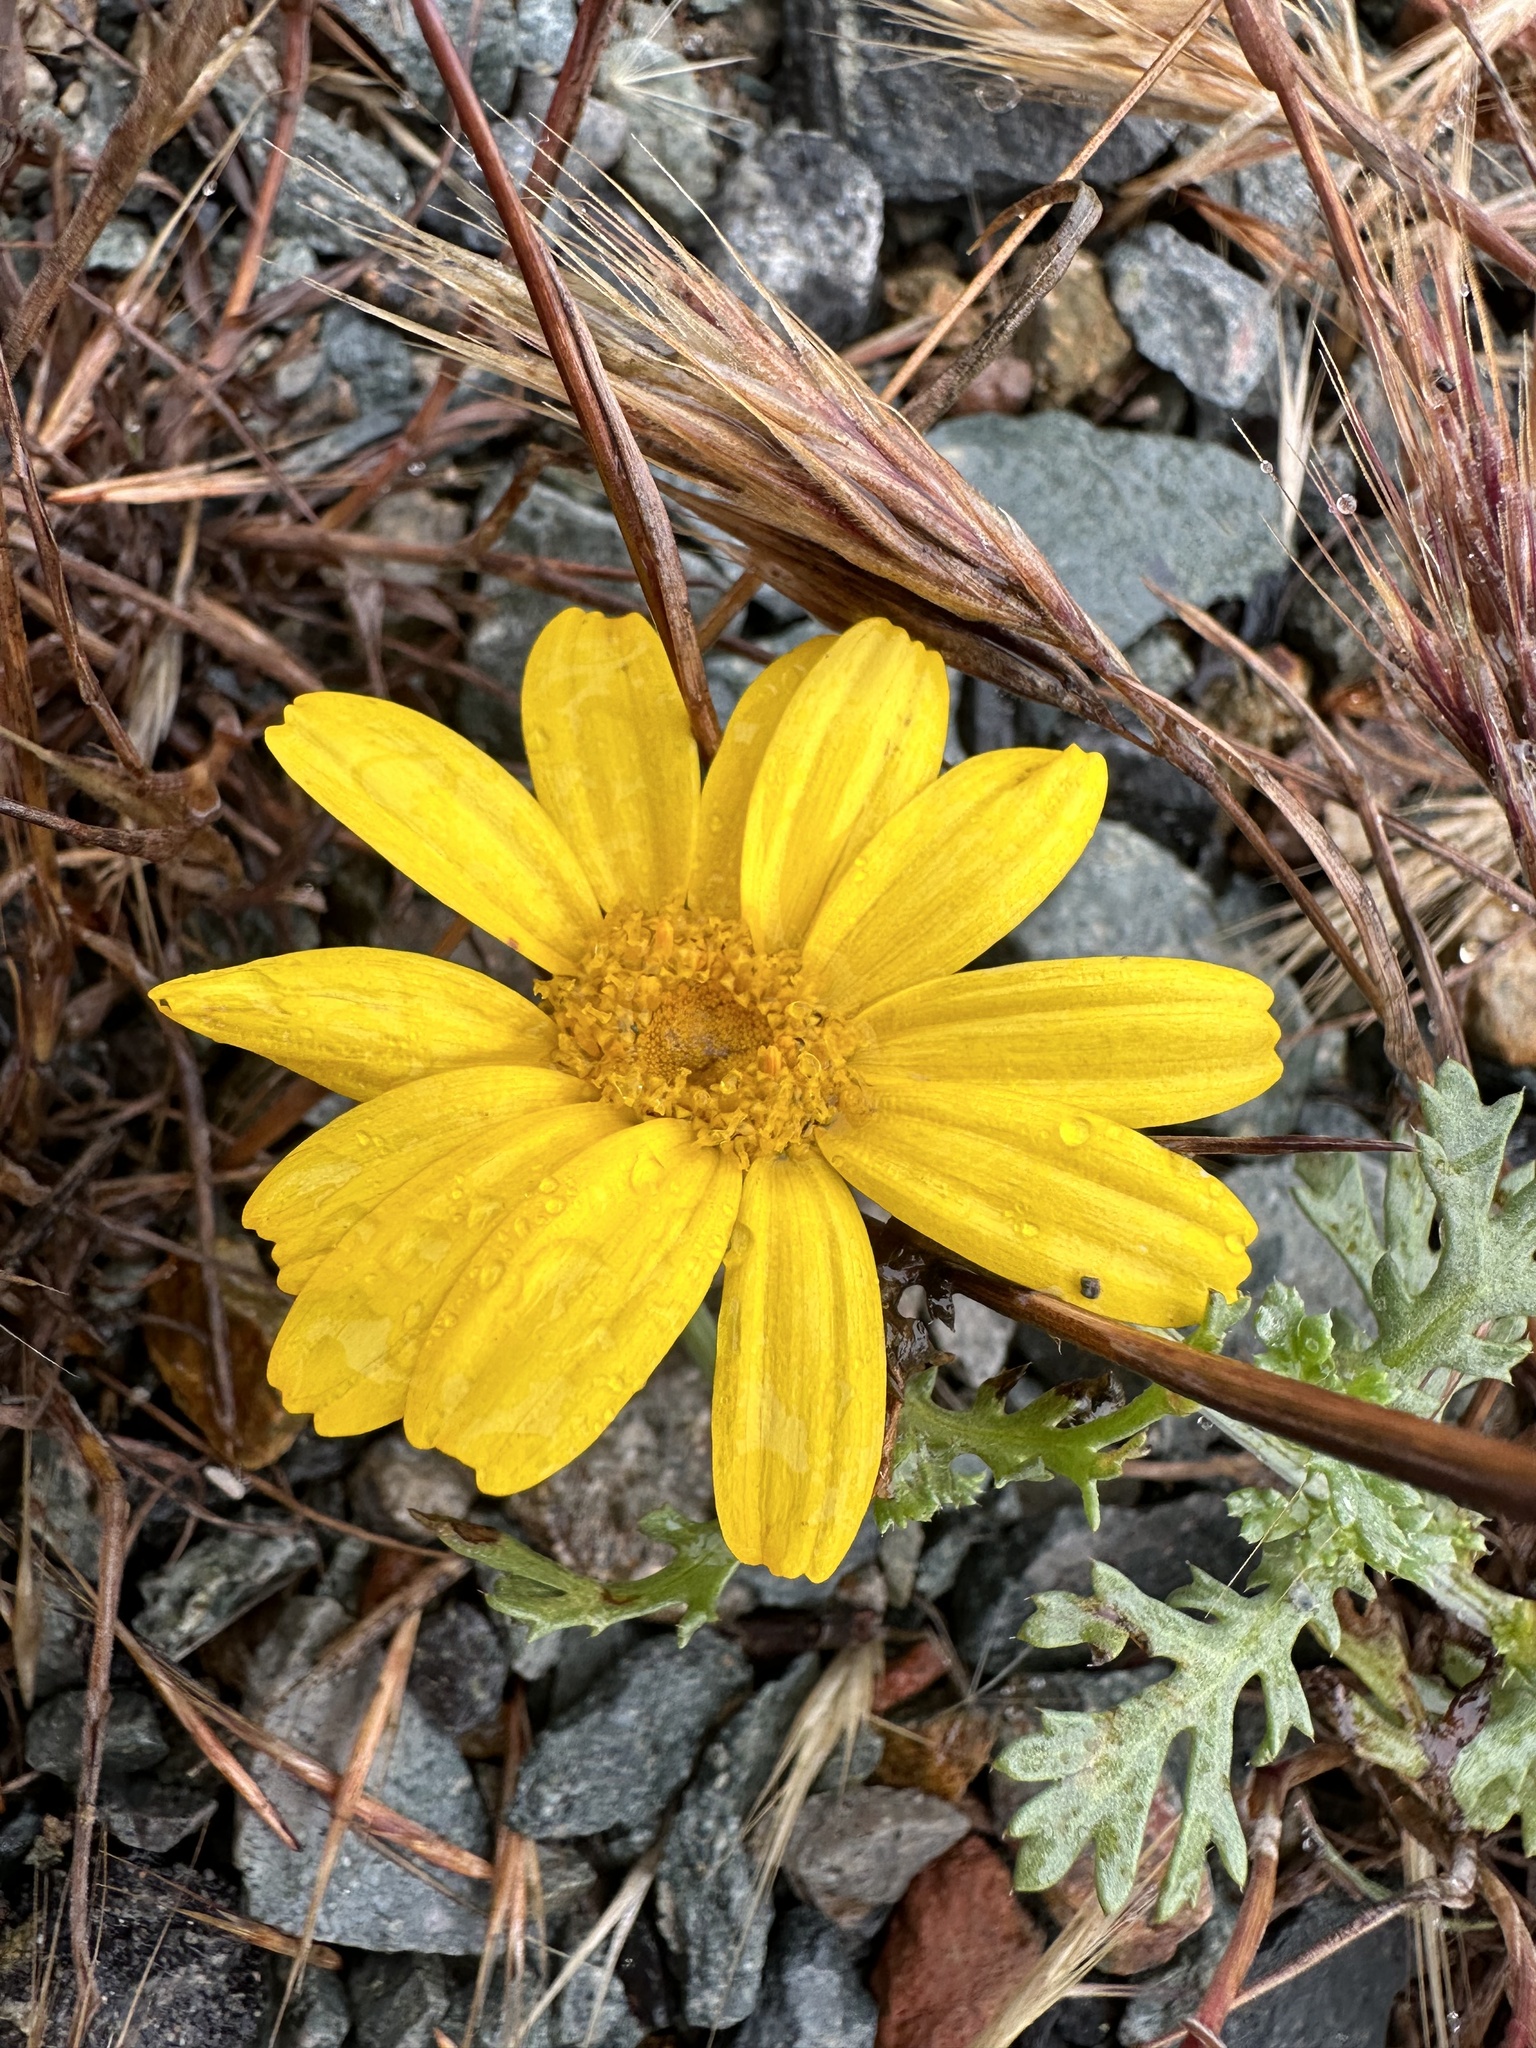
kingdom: Plantae
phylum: Tracheophyta
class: Magnoliopsida
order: Asterales
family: Asteraceae
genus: Glebionis
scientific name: Glebionis coronaria
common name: Crowndaisy
